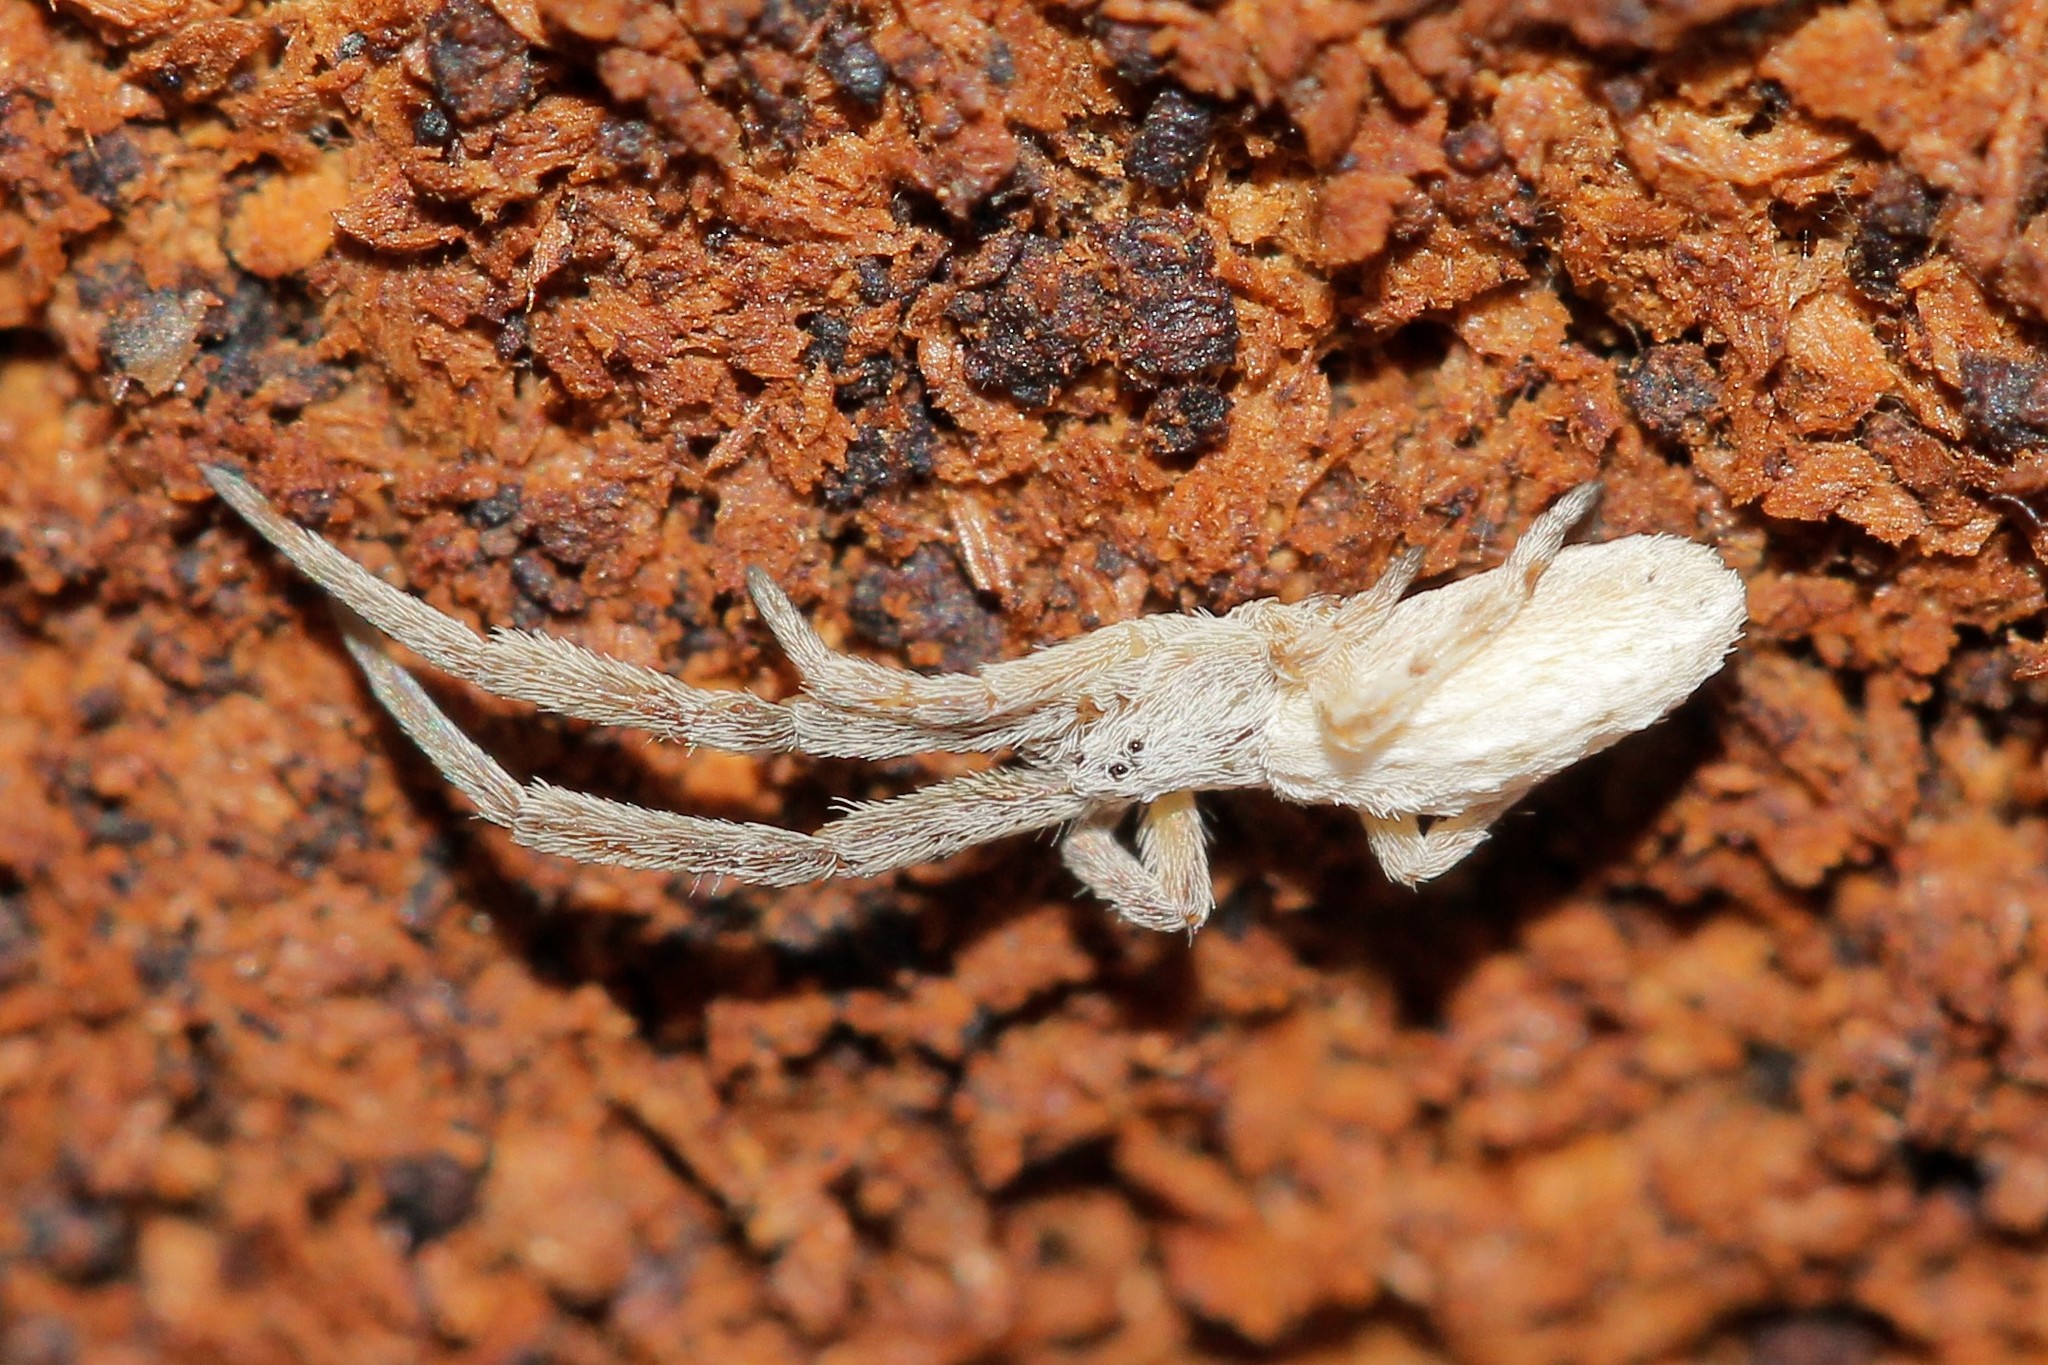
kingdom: Animalia
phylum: Arthropoda
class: Arachnida
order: Araneae
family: Uloboridae
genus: Uloborus
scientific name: Uloborus walckenaerius
